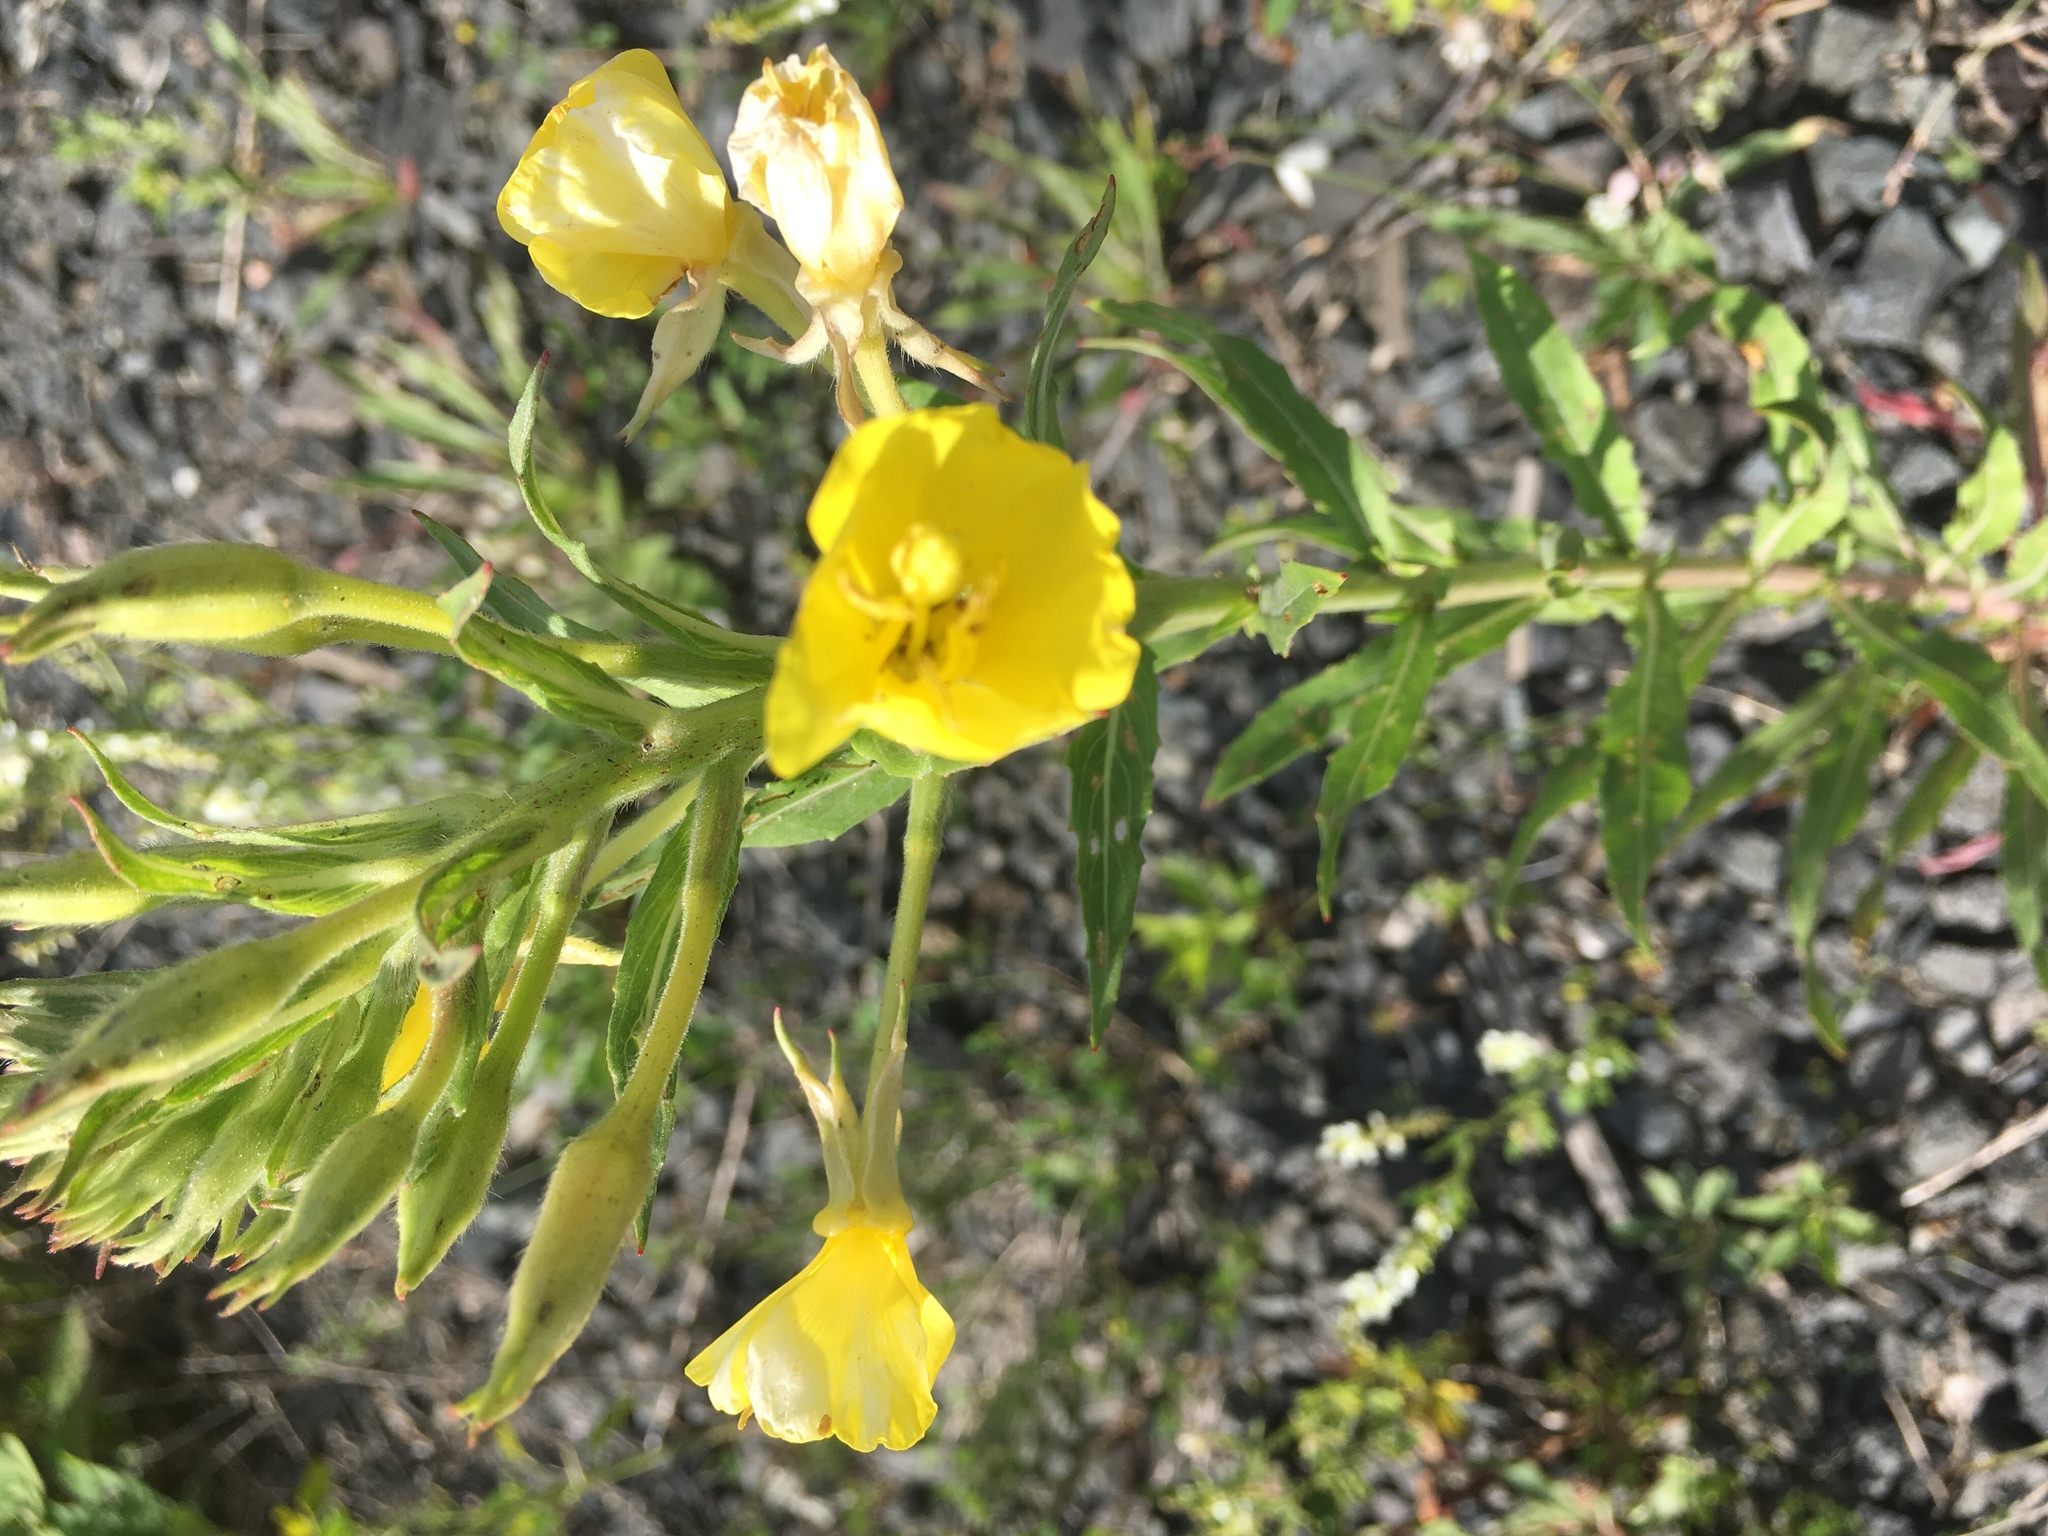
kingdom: Plantae
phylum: Tracheophyta
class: Magnoliopsida
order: Myrtales
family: Onagraceae
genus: Oenothera
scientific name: Oenothera biennis
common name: Common evening-primrose
